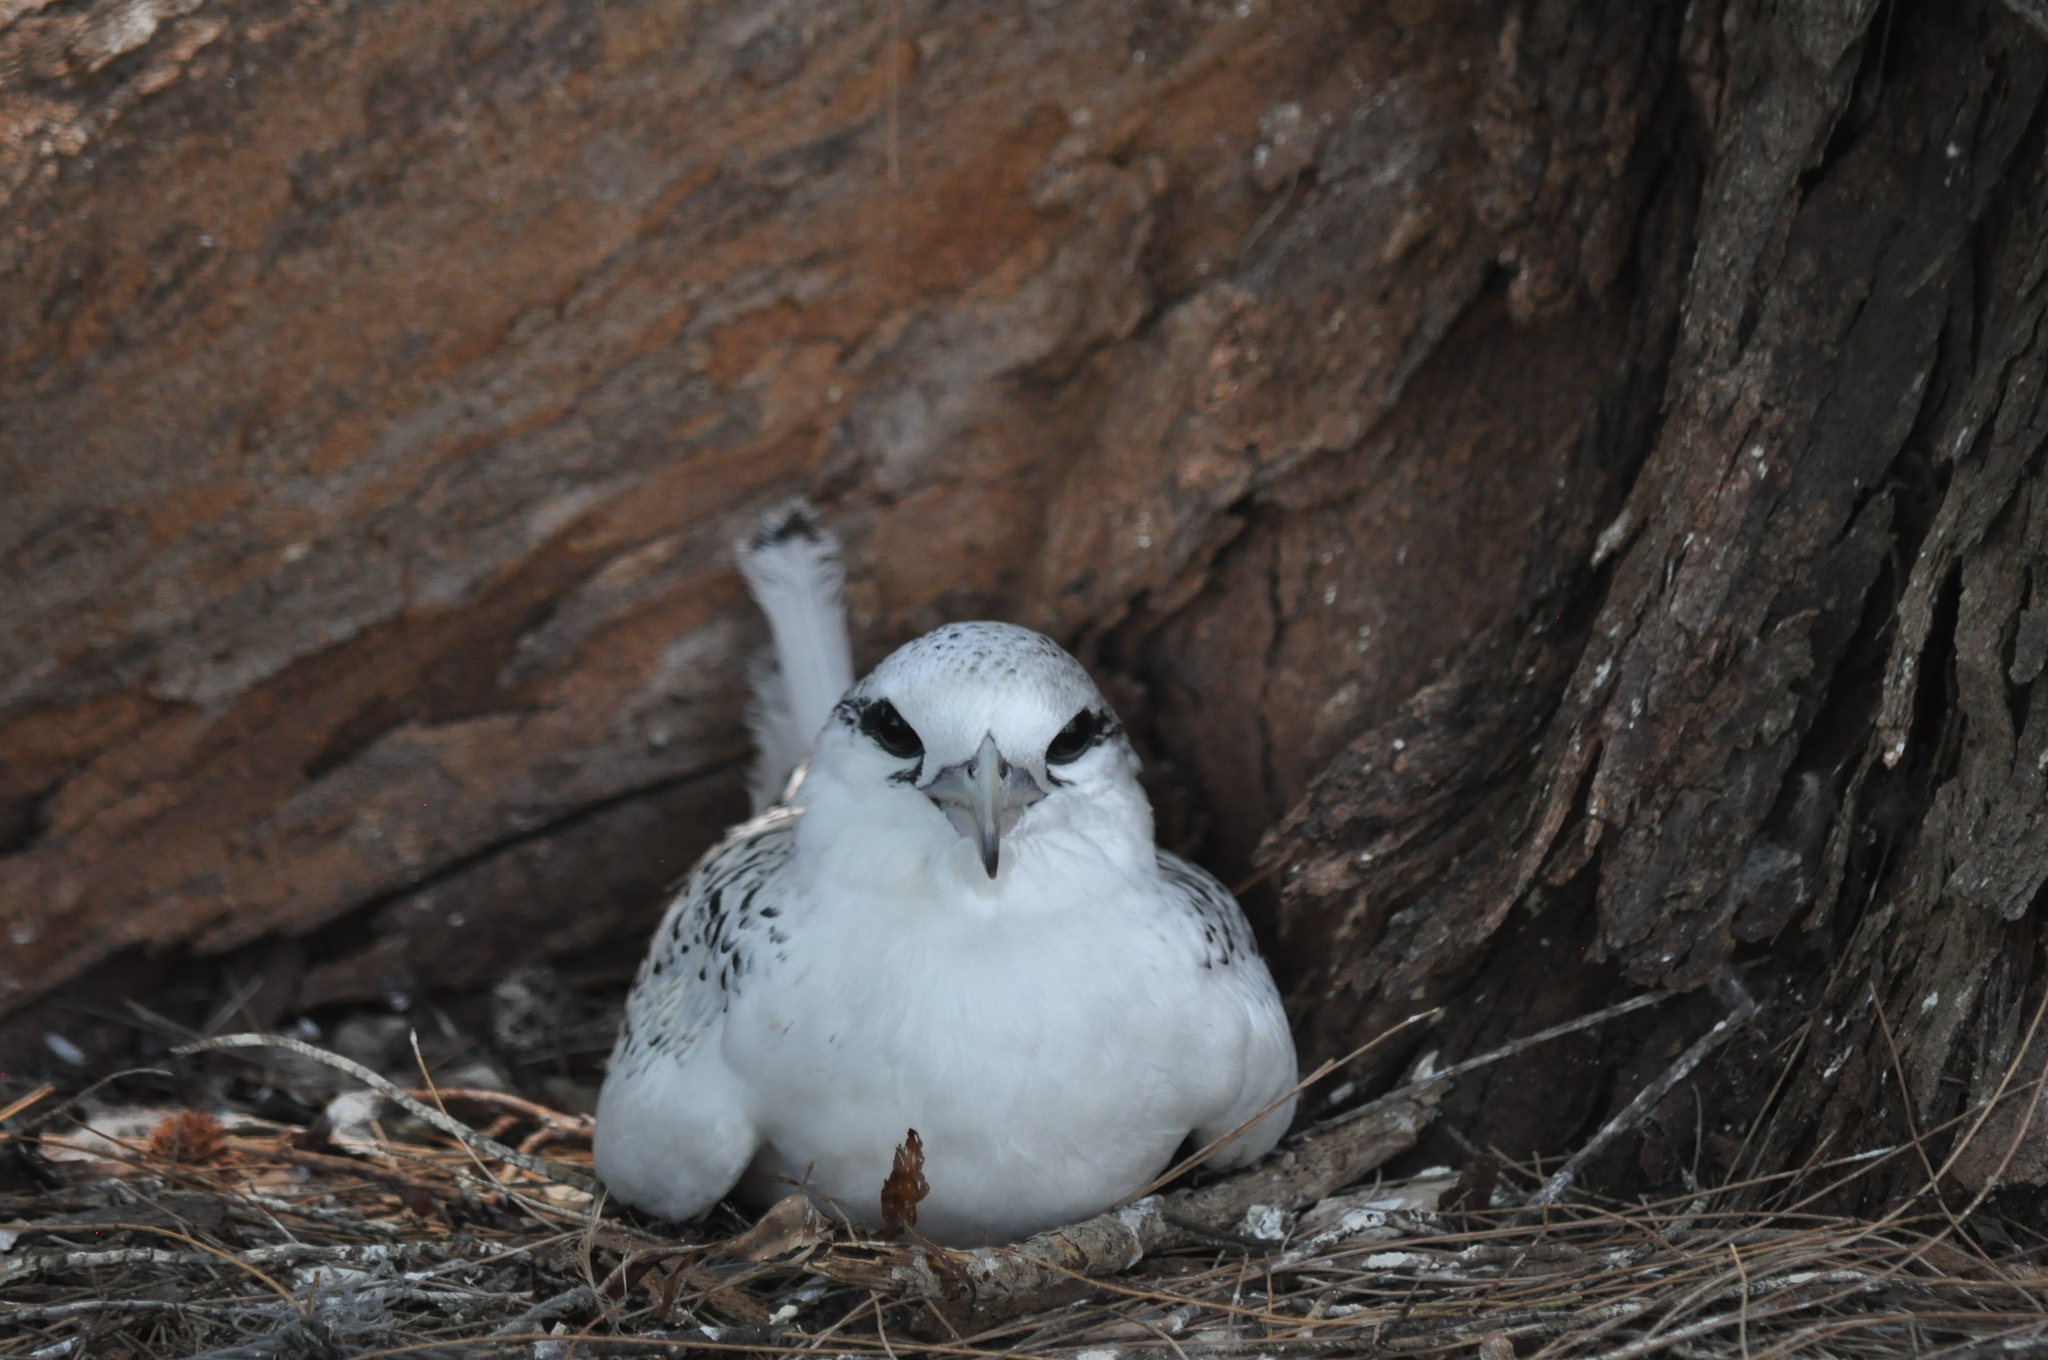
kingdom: Animalia
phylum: Chordata
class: Aves
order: Phaethontiformes
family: Phaethontidae
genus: Phaethon
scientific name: Phaethon lepturus
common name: White-tailed tropicbird
